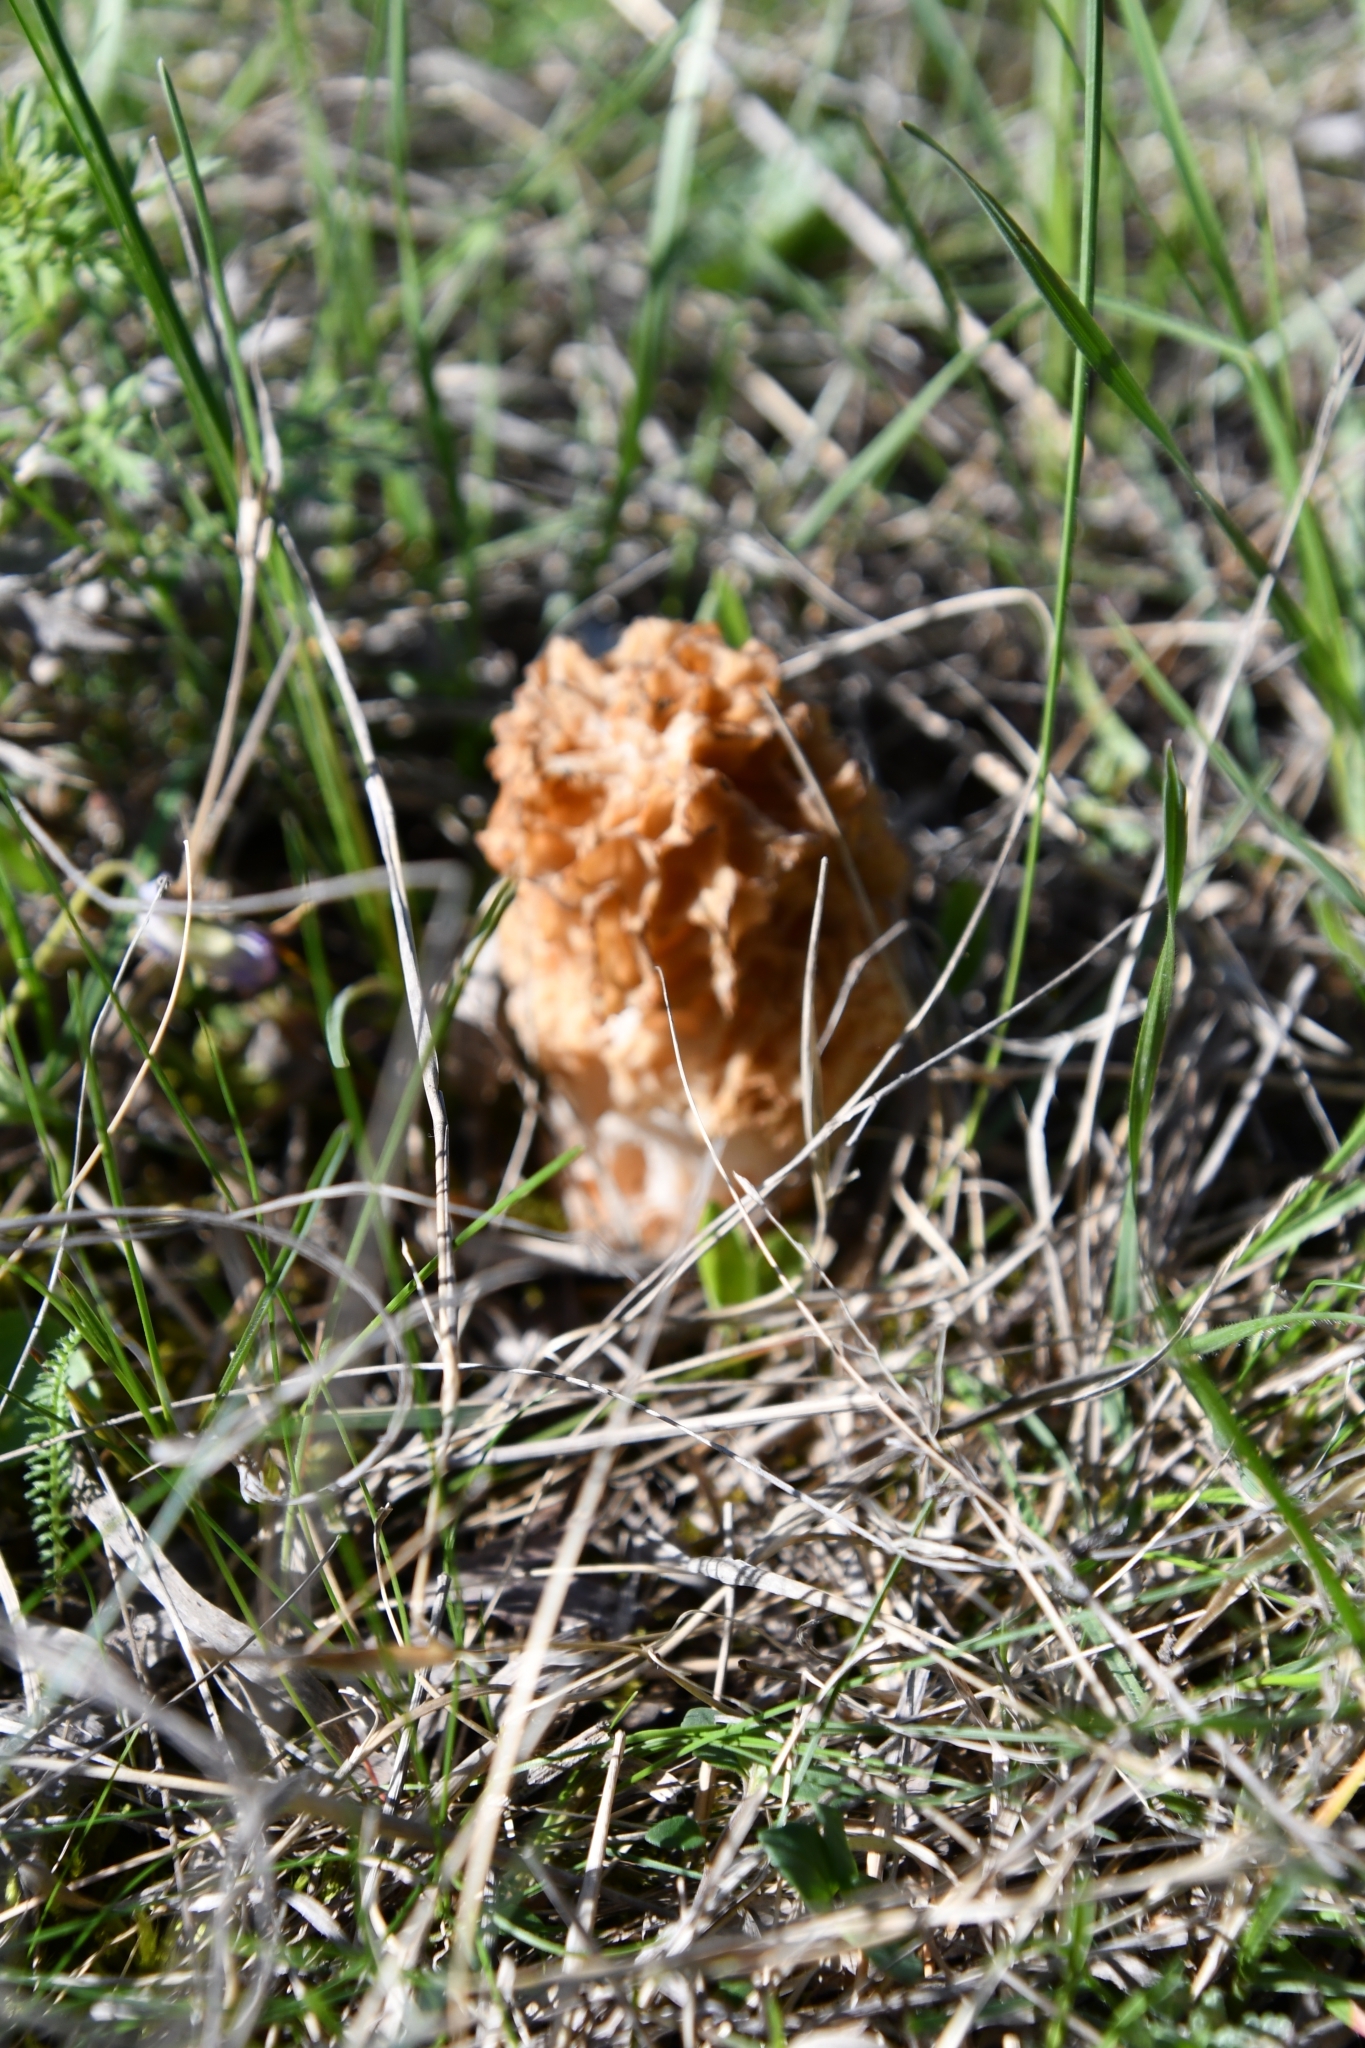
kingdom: Fungi
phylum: Ascomycota
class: Pezizomycetes
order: Pezizales
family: Morchellaceae
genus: Morchella
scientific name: Morchella steppicola
